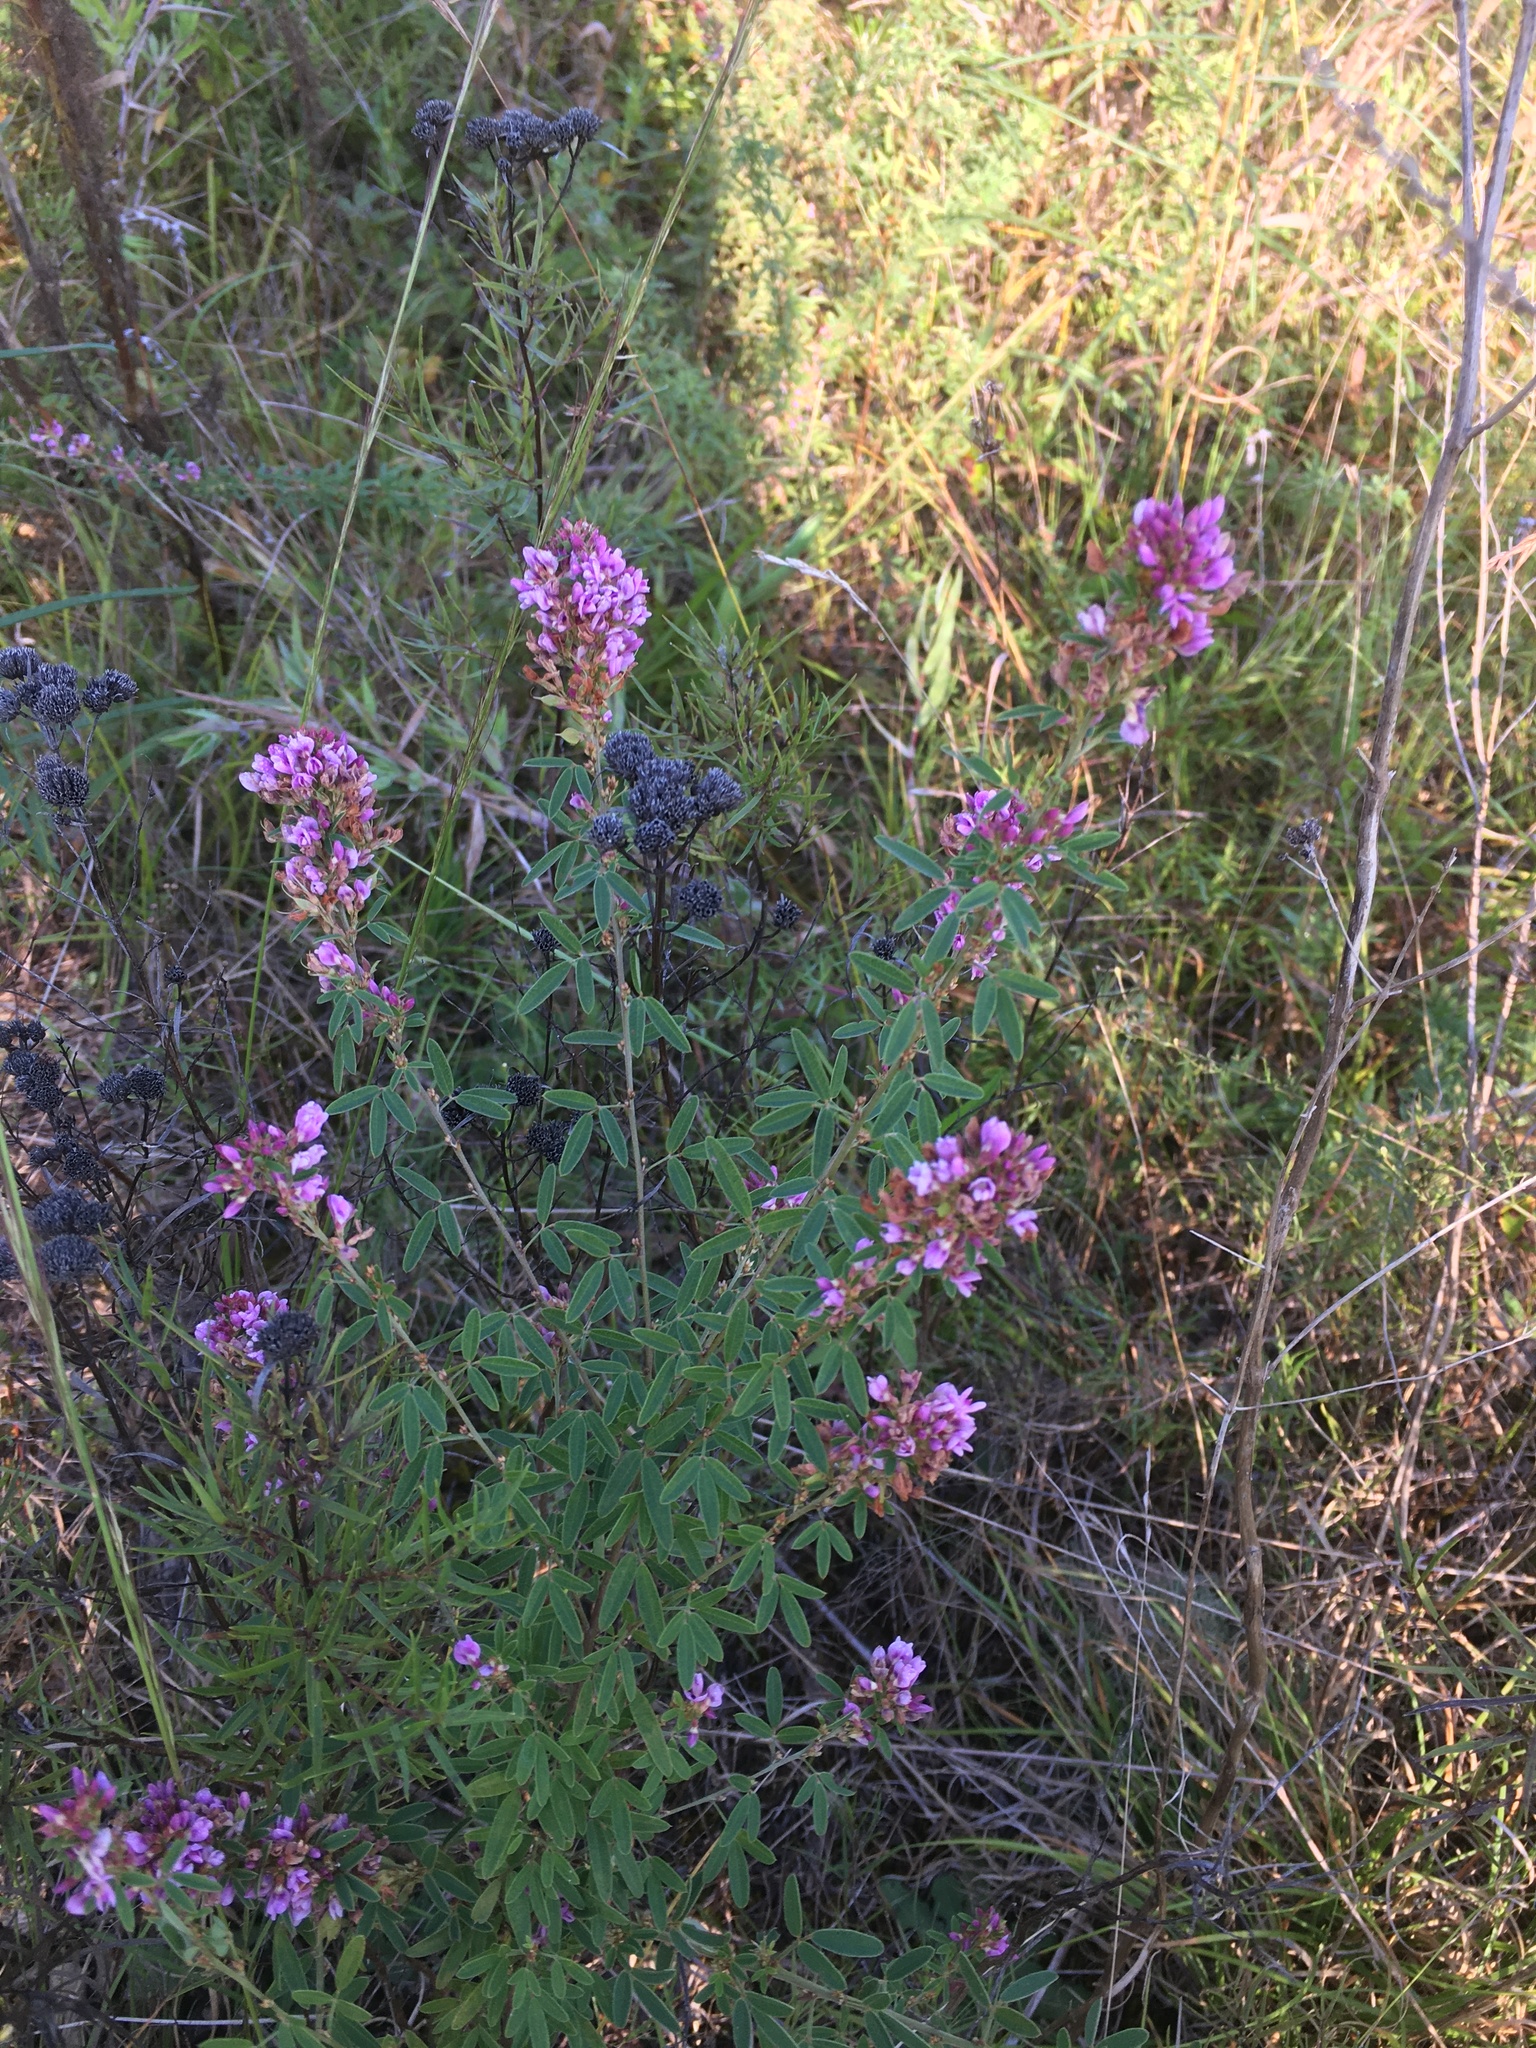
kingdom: Plantae
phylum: Tracheophyta
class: Magnoliopsida
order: Fabales
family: Fabaceae
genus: Lespedeza
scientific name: Lespedeza virginica
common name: Slender bush-clover
